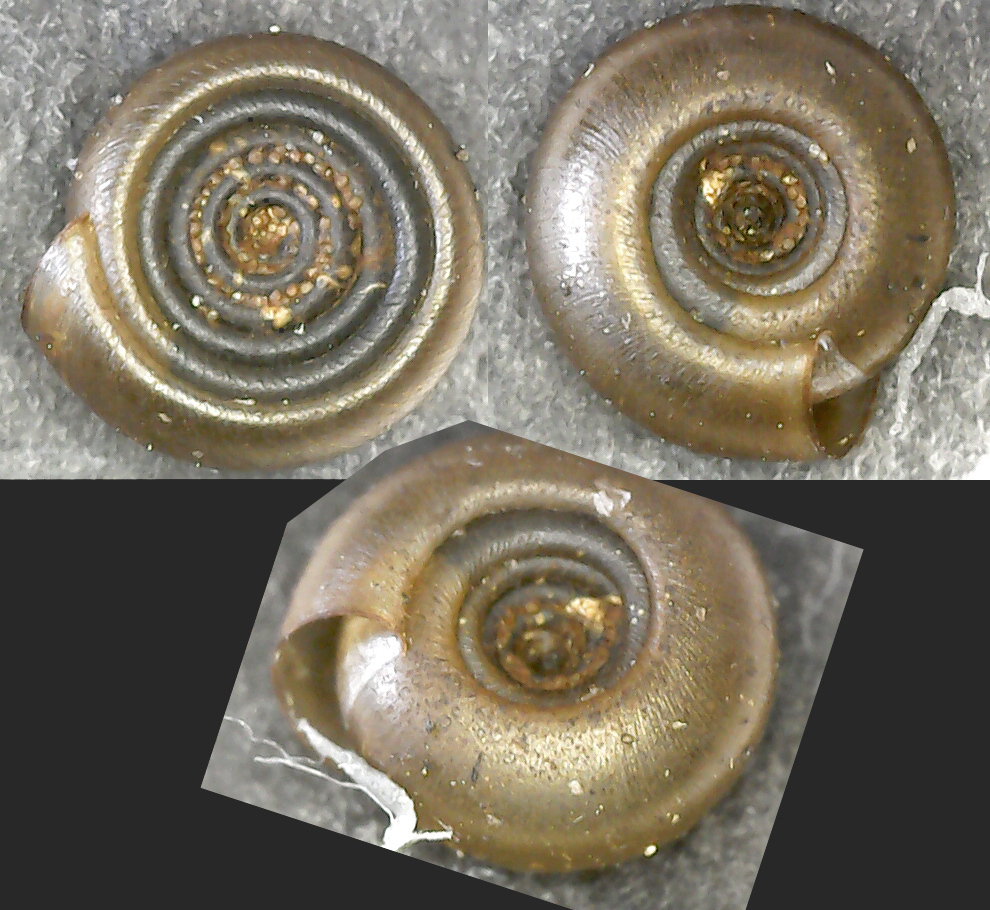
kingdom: Animalia
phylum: Mollusca
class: Gastropoda
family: Planorbidae
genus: Bathyomphalus
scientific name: Bathyomphalus contortus
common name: Twisted ramshorn
